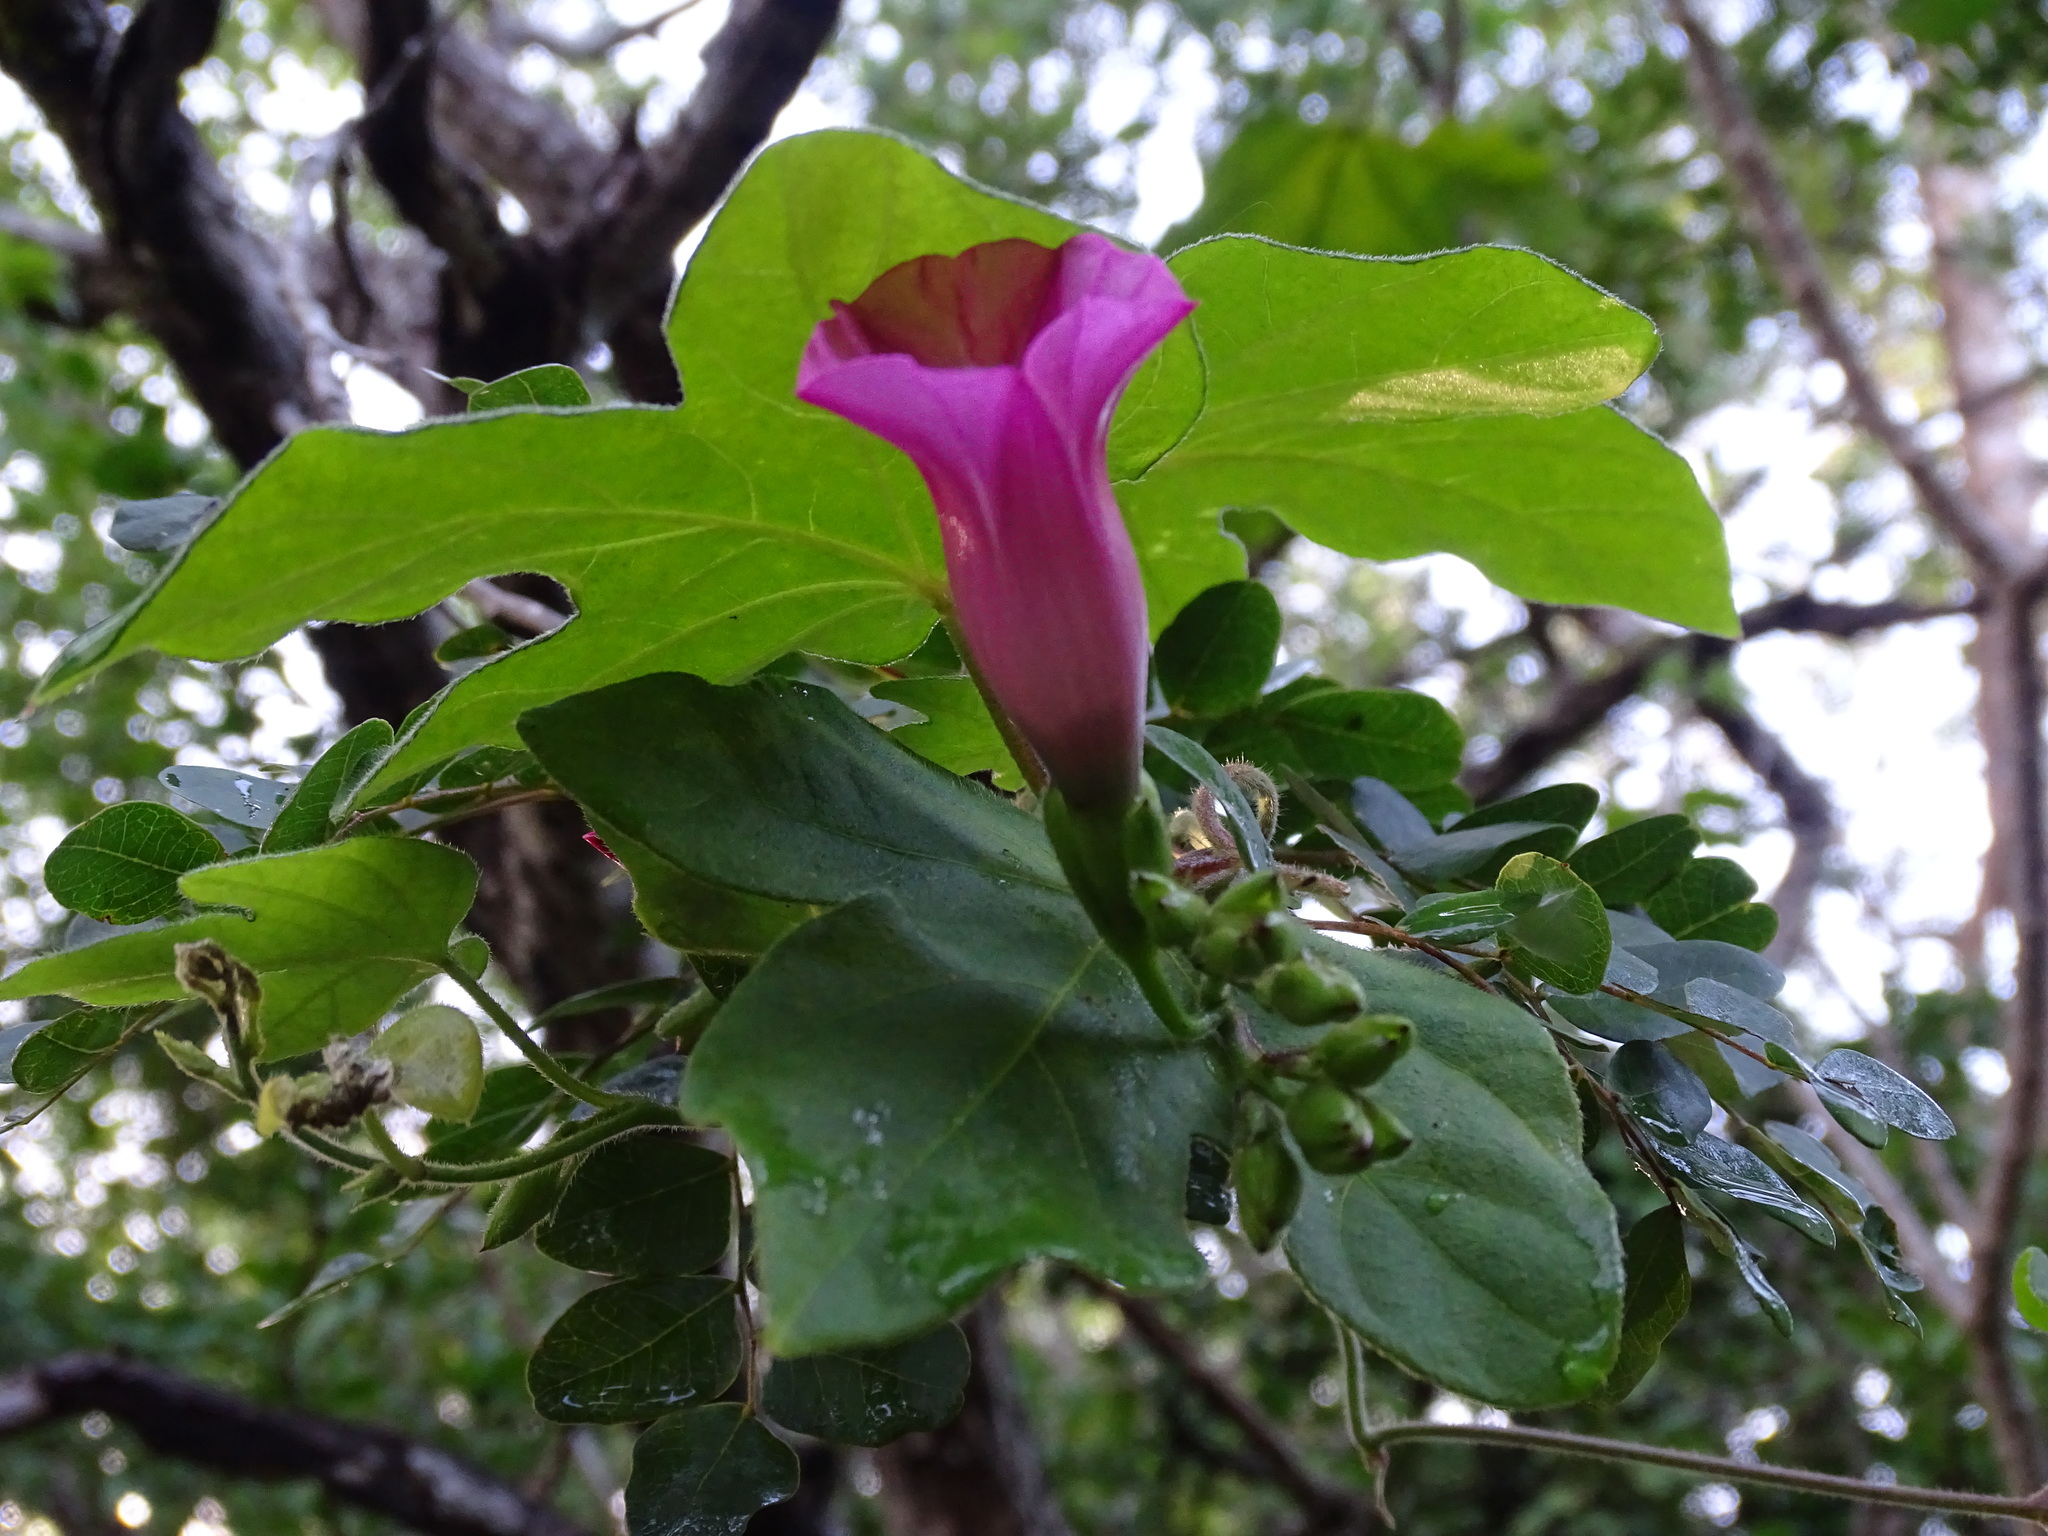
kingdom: Plantae
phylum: Tracheophyta
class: Magnoliopsida
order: Solanales
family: Convolvulaceae
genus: Ipomoea
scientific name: Ipomoea peteri
